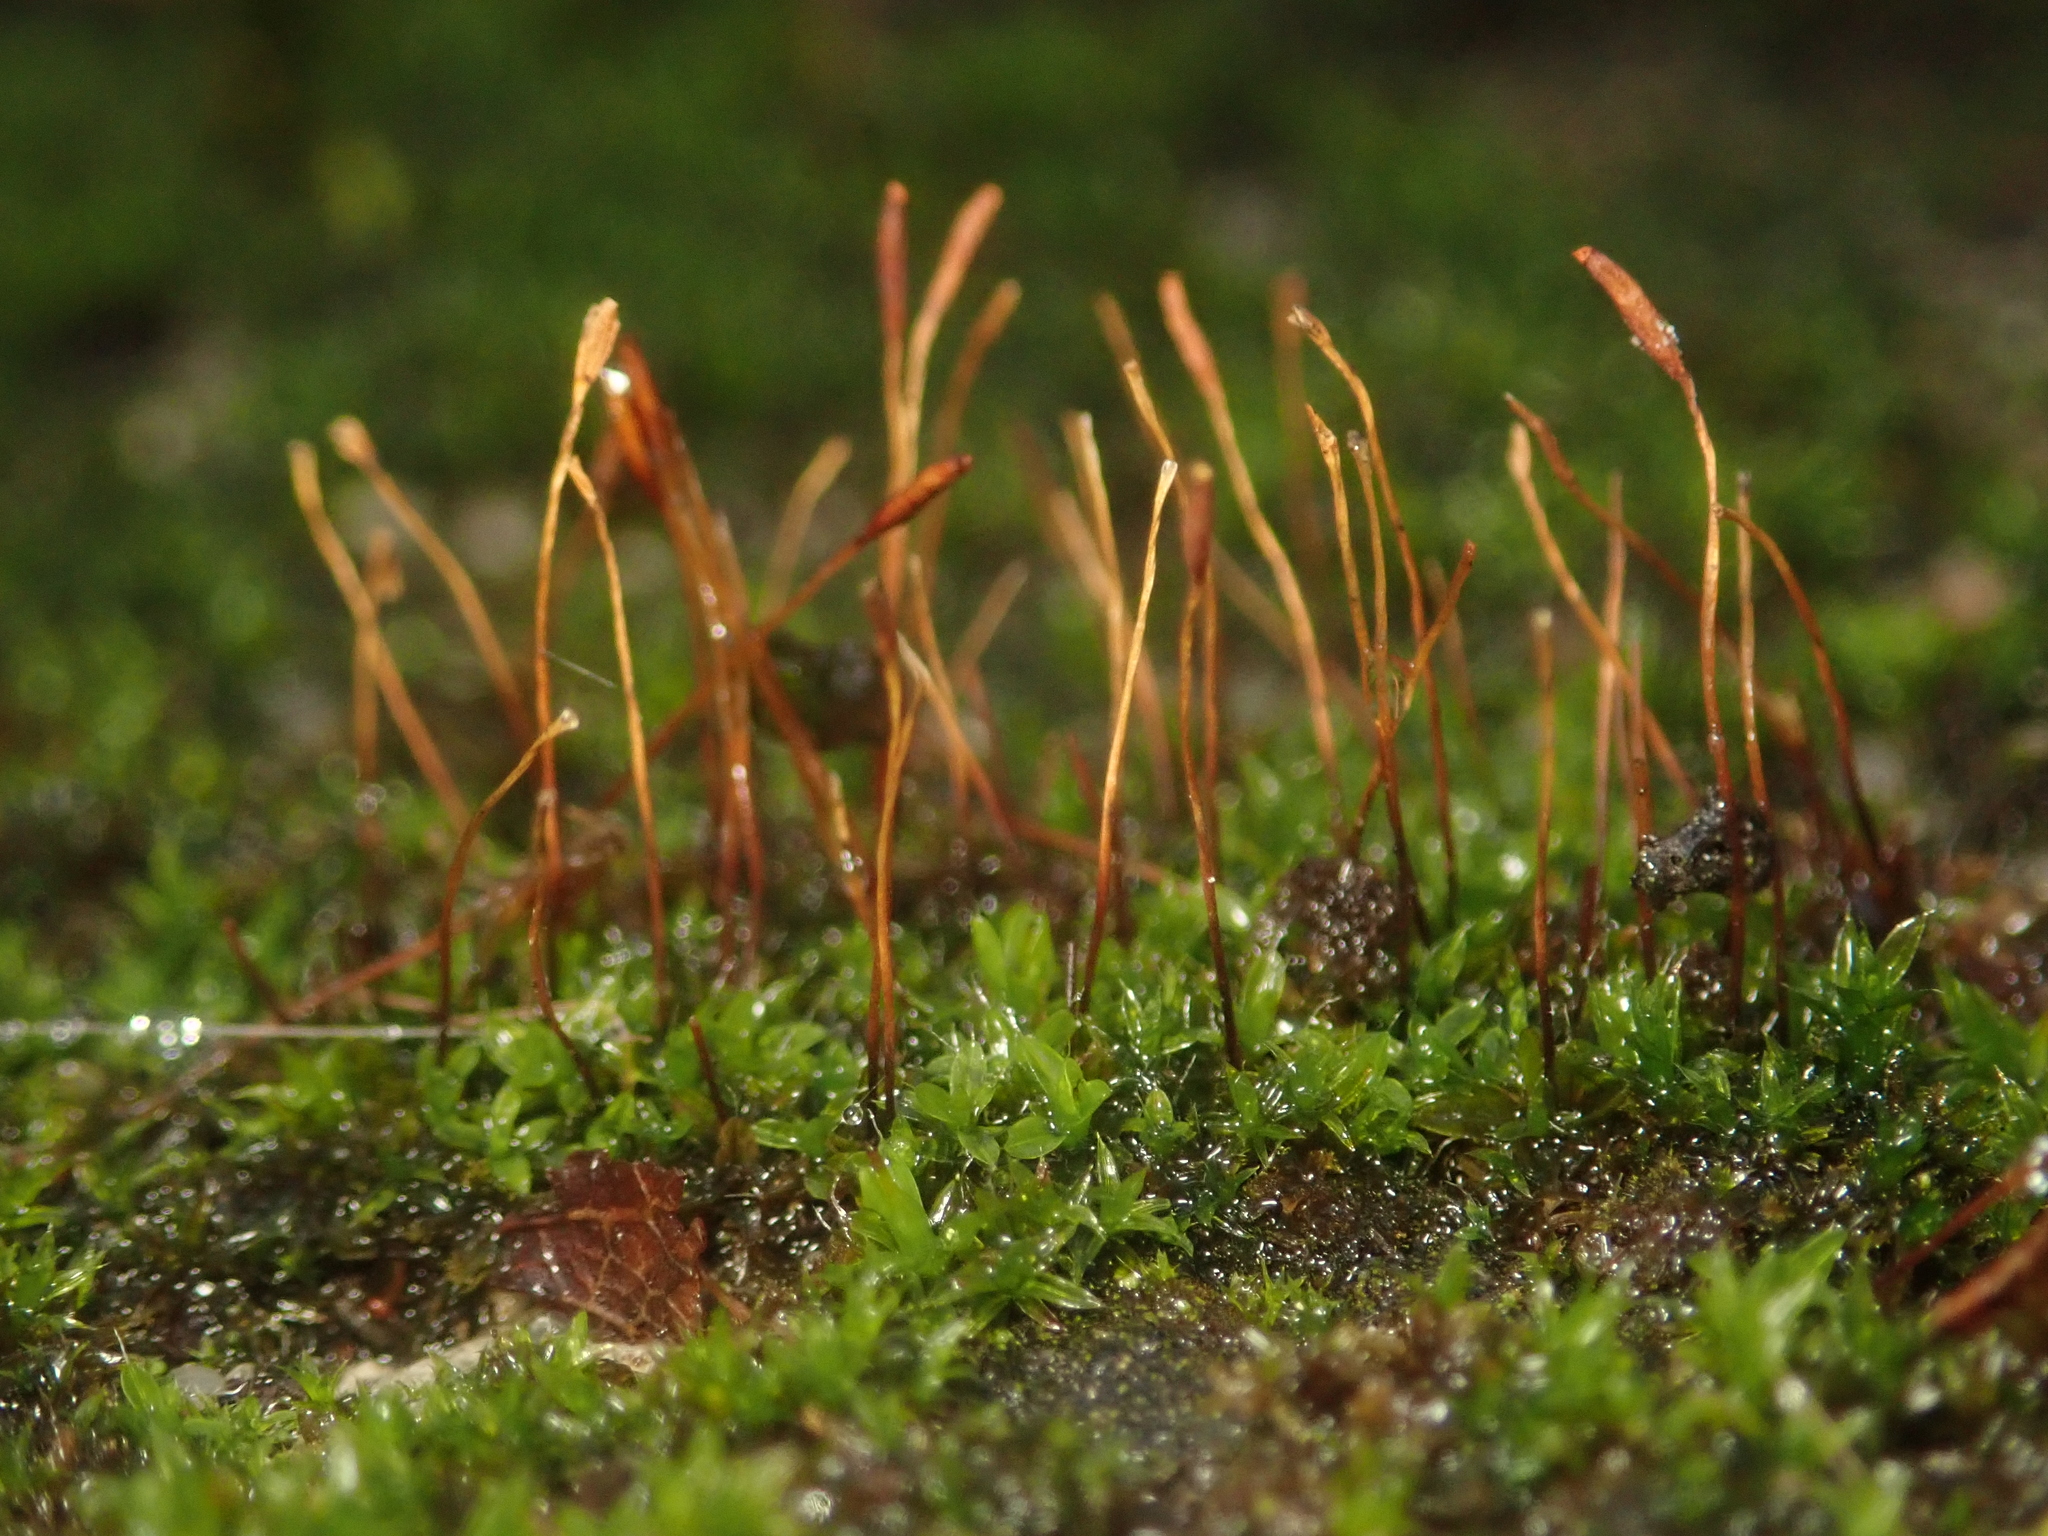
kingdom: Plantae
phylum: Bryophyta
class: Bryopsida
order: Pottiales
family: Pottiaceae
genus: Tortula
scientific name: Tortula muralis
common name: Wall screw-moss
